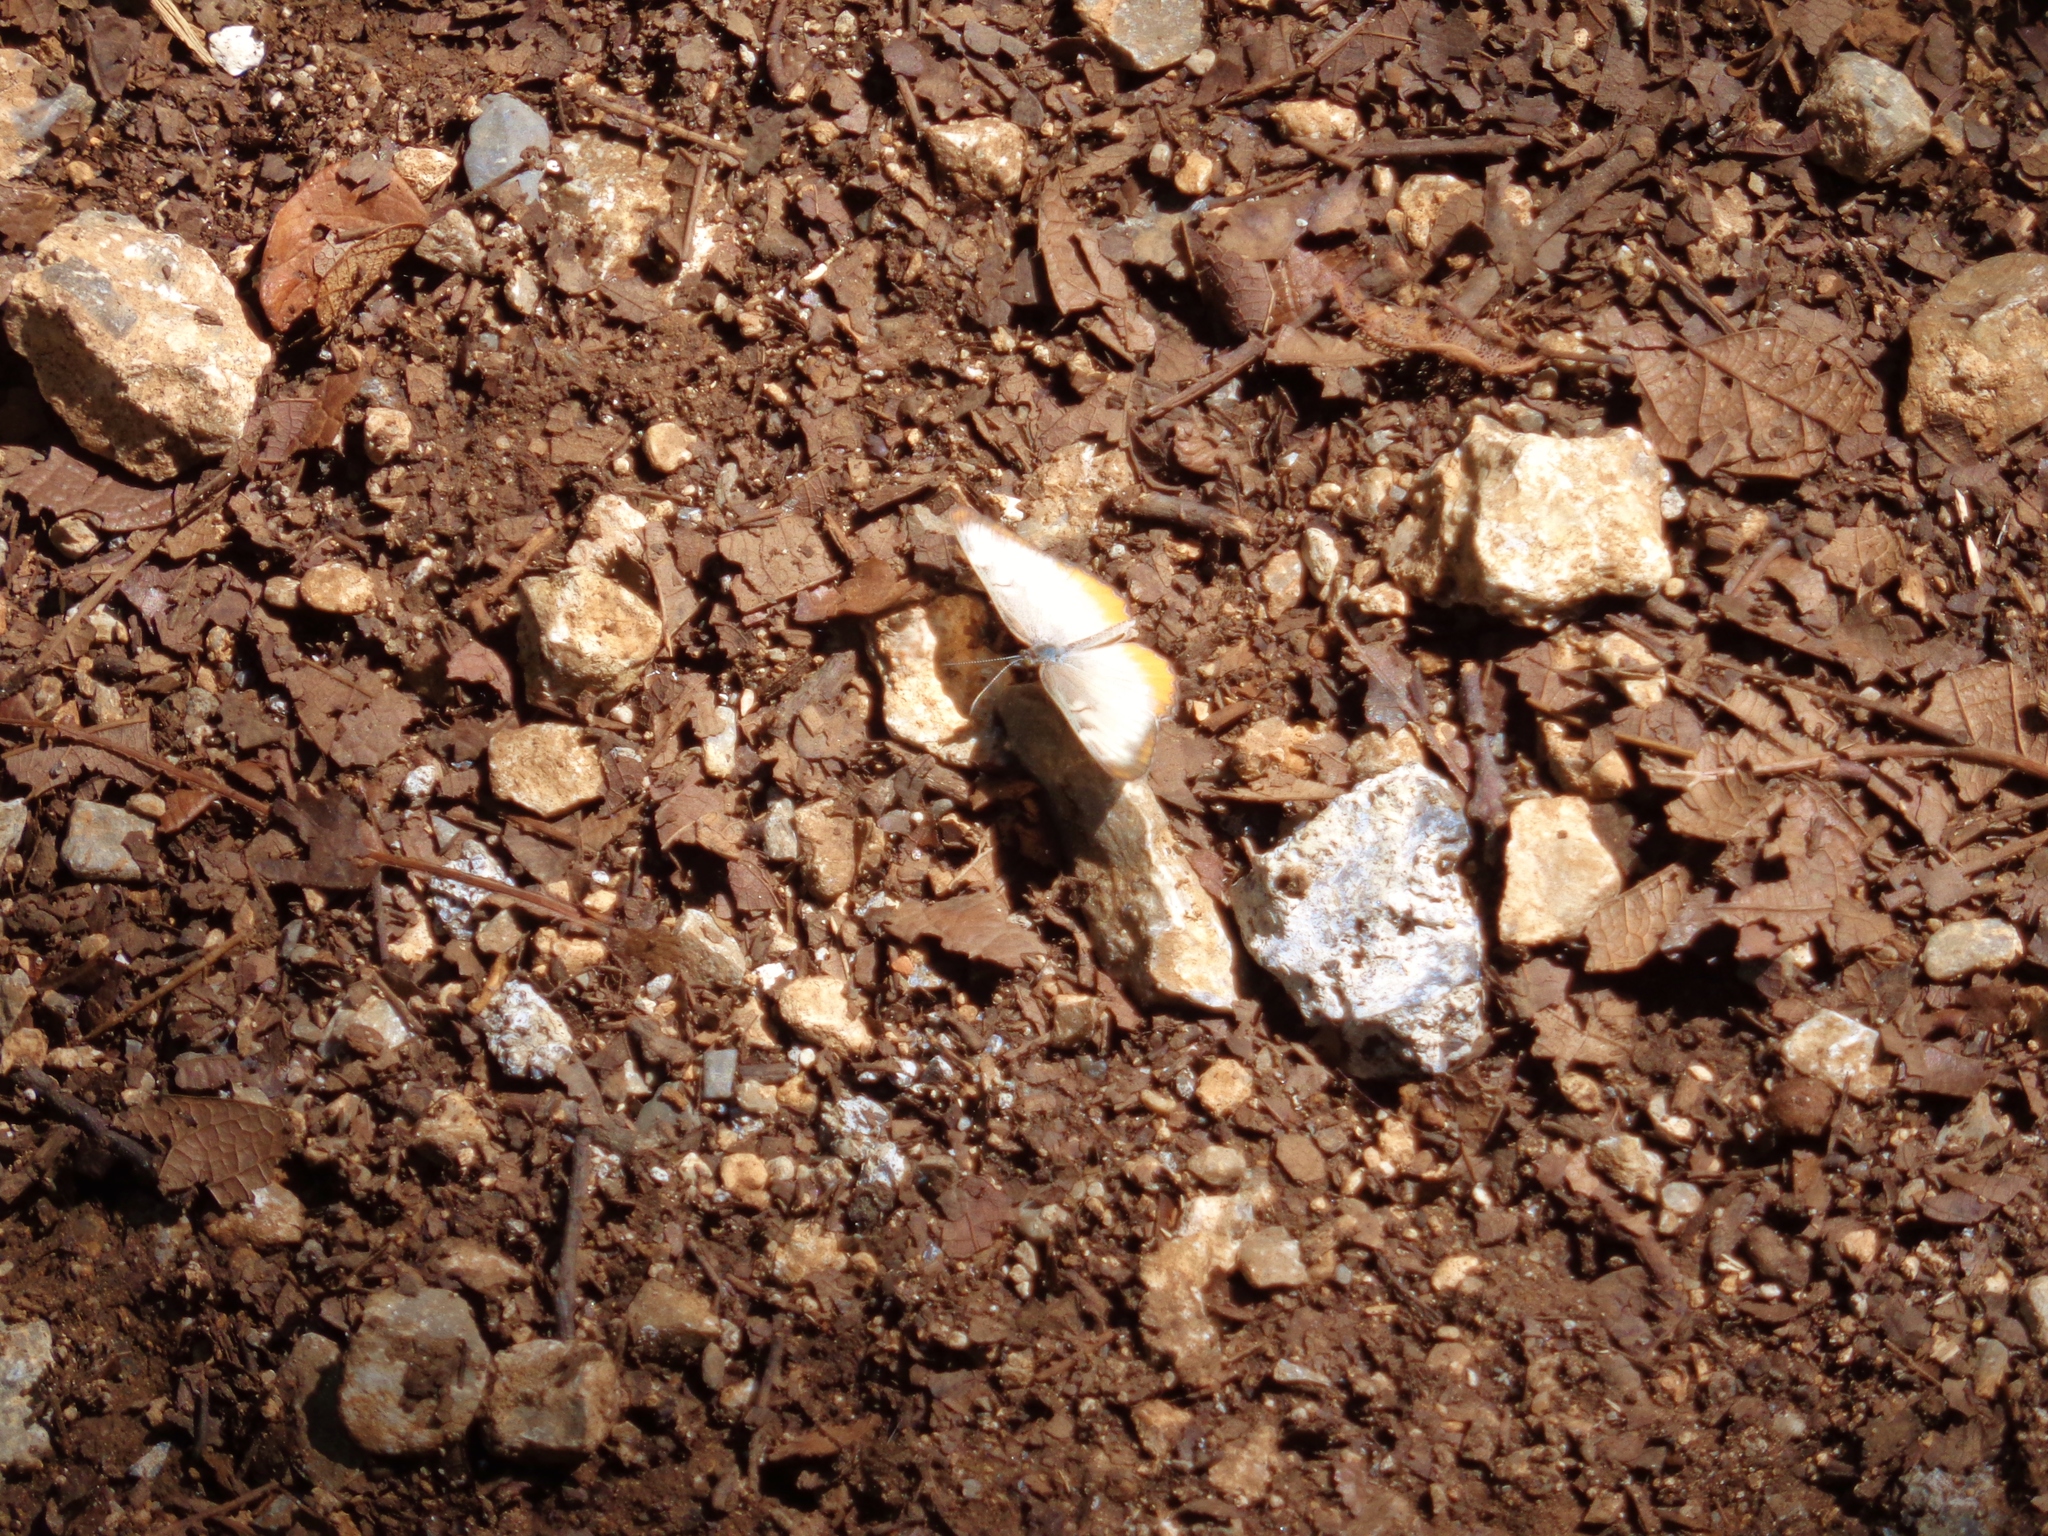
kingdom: Animalia
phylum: Arthropoda
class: Insecta
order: Lepidoptera
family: Nymphalidae
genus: Mestra
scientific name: Mestra amymone
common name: Common mestra
